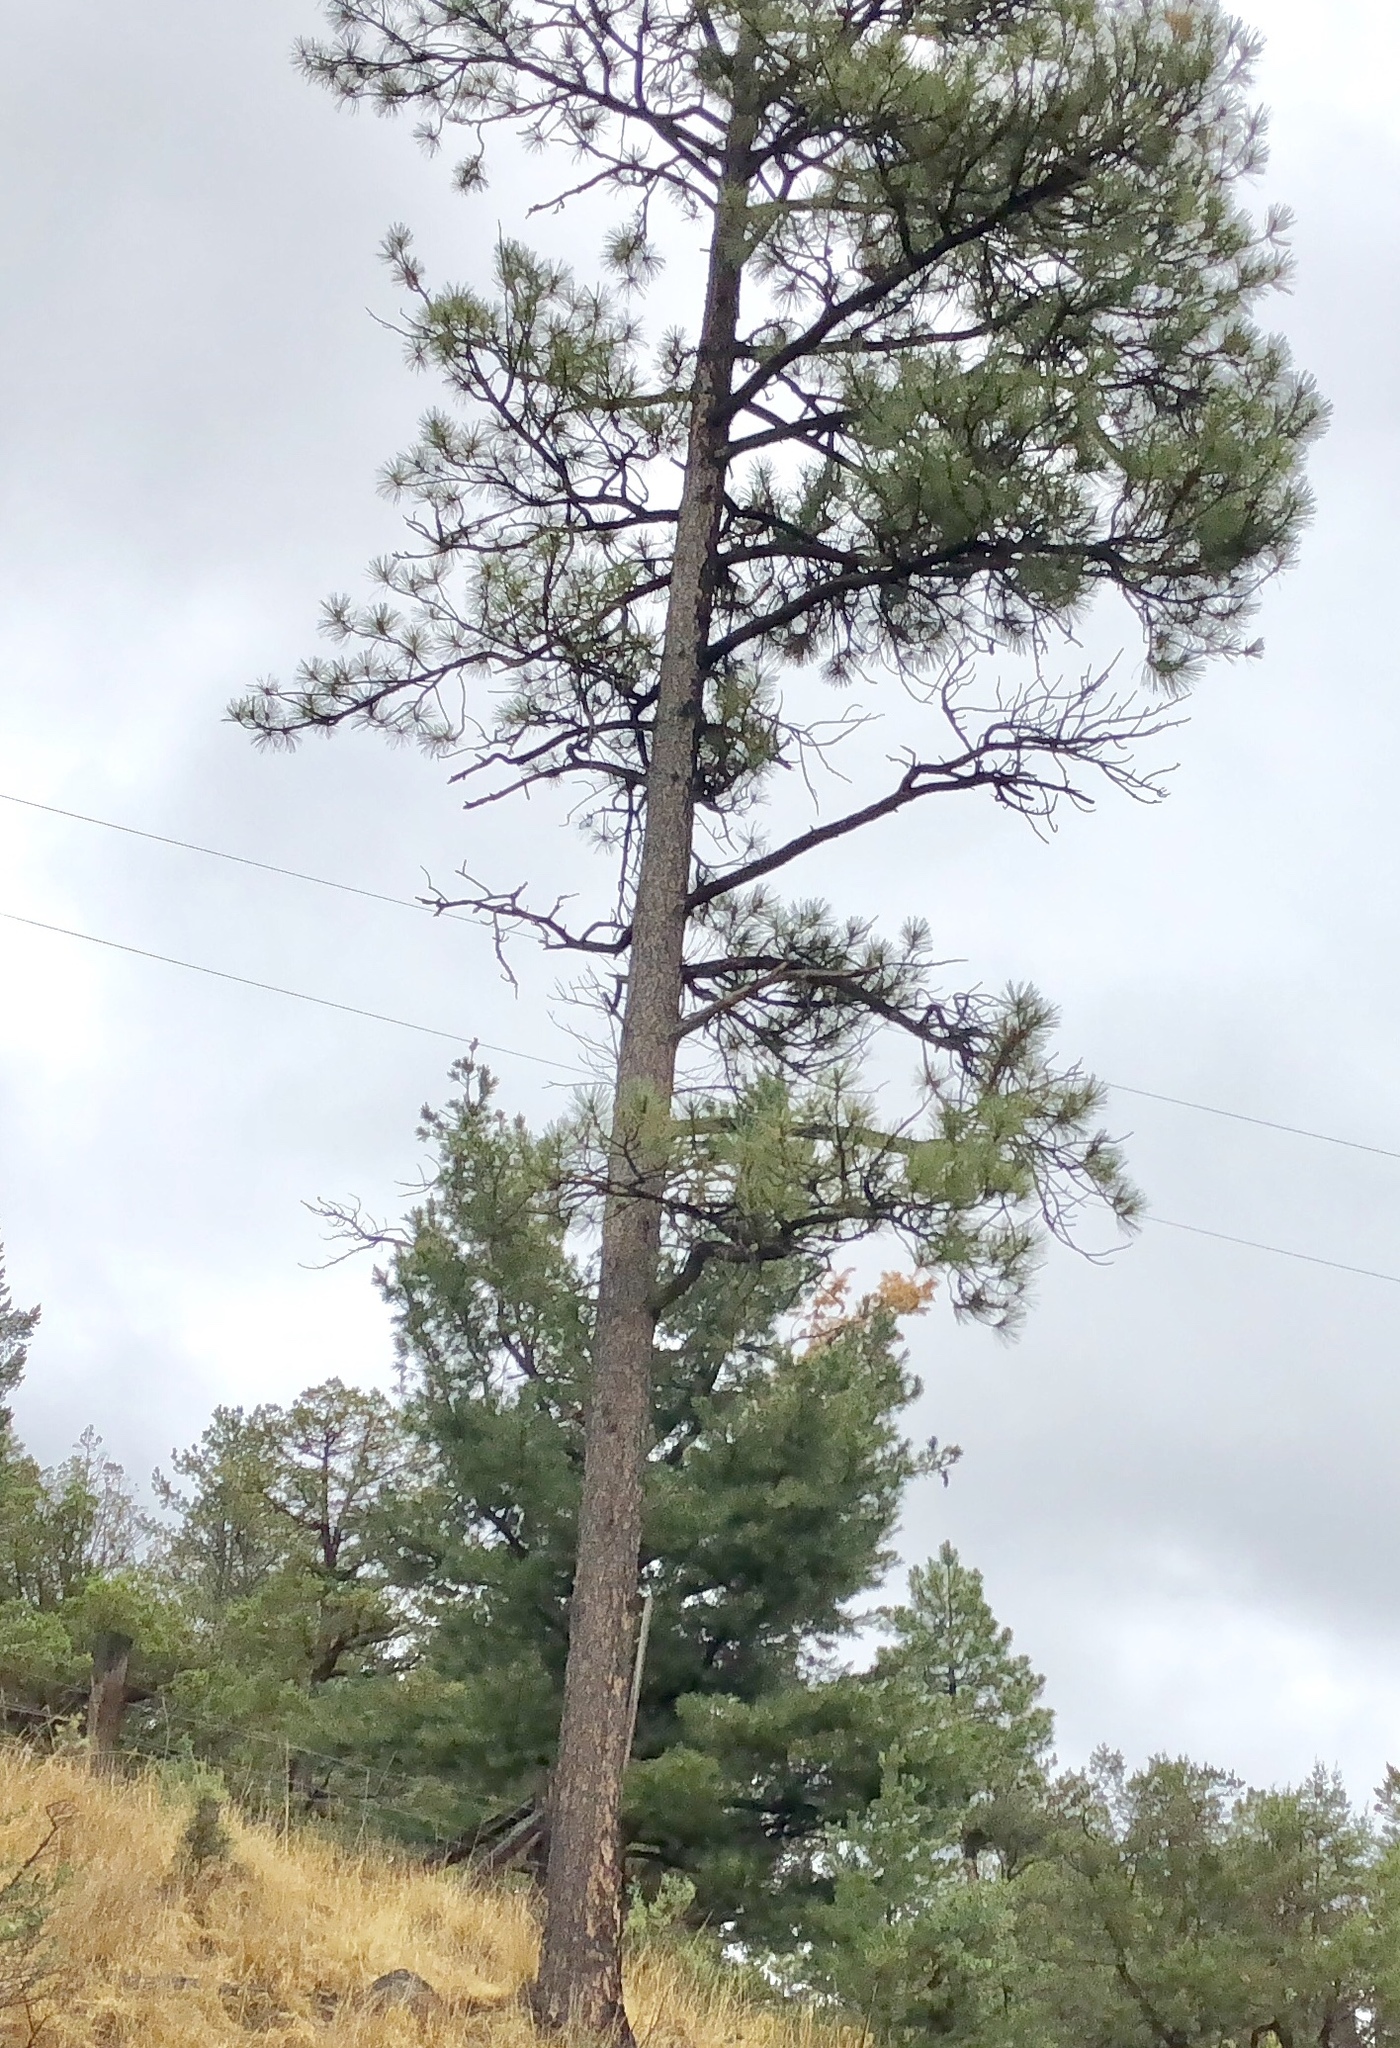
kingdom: Plantae
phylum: Tracheophyta
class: Pinopsida
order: Pinales
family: Pinaceae
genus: Pinus
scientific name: Pinus ponderosa
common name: Western yellow-pine
